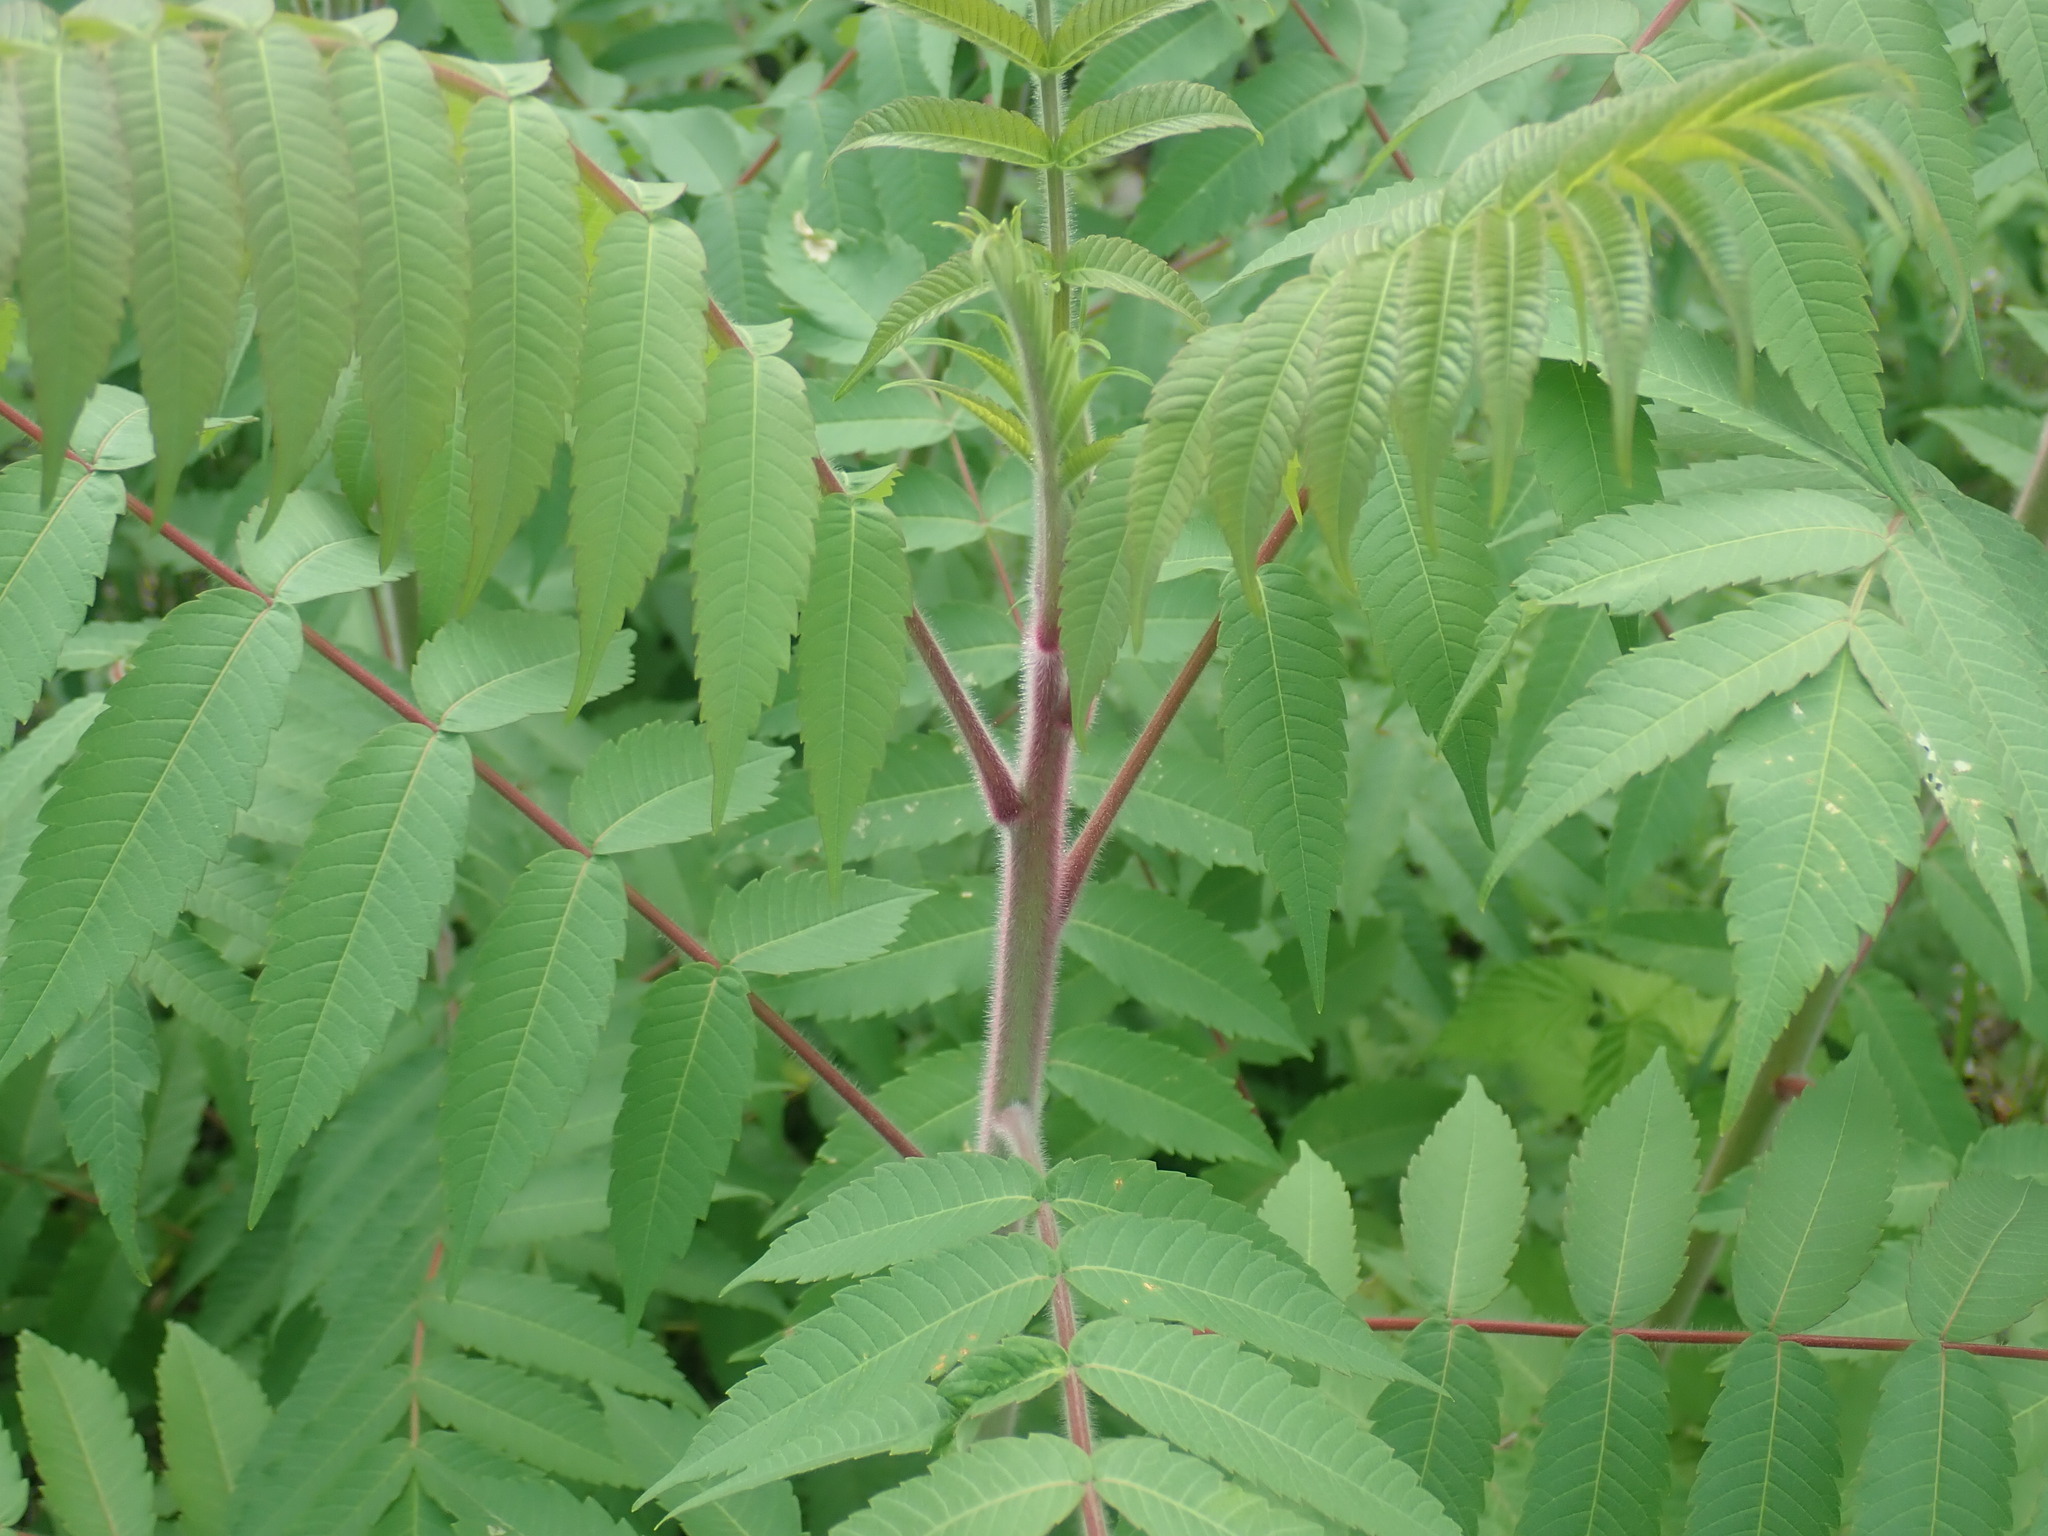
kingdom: Plantae
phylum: Tracheophyta
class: Magnoliopsida
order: Sapindales
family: Anacardiaceae
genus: Rhus
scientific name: Rhus typhina
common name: Staghorn sumac
